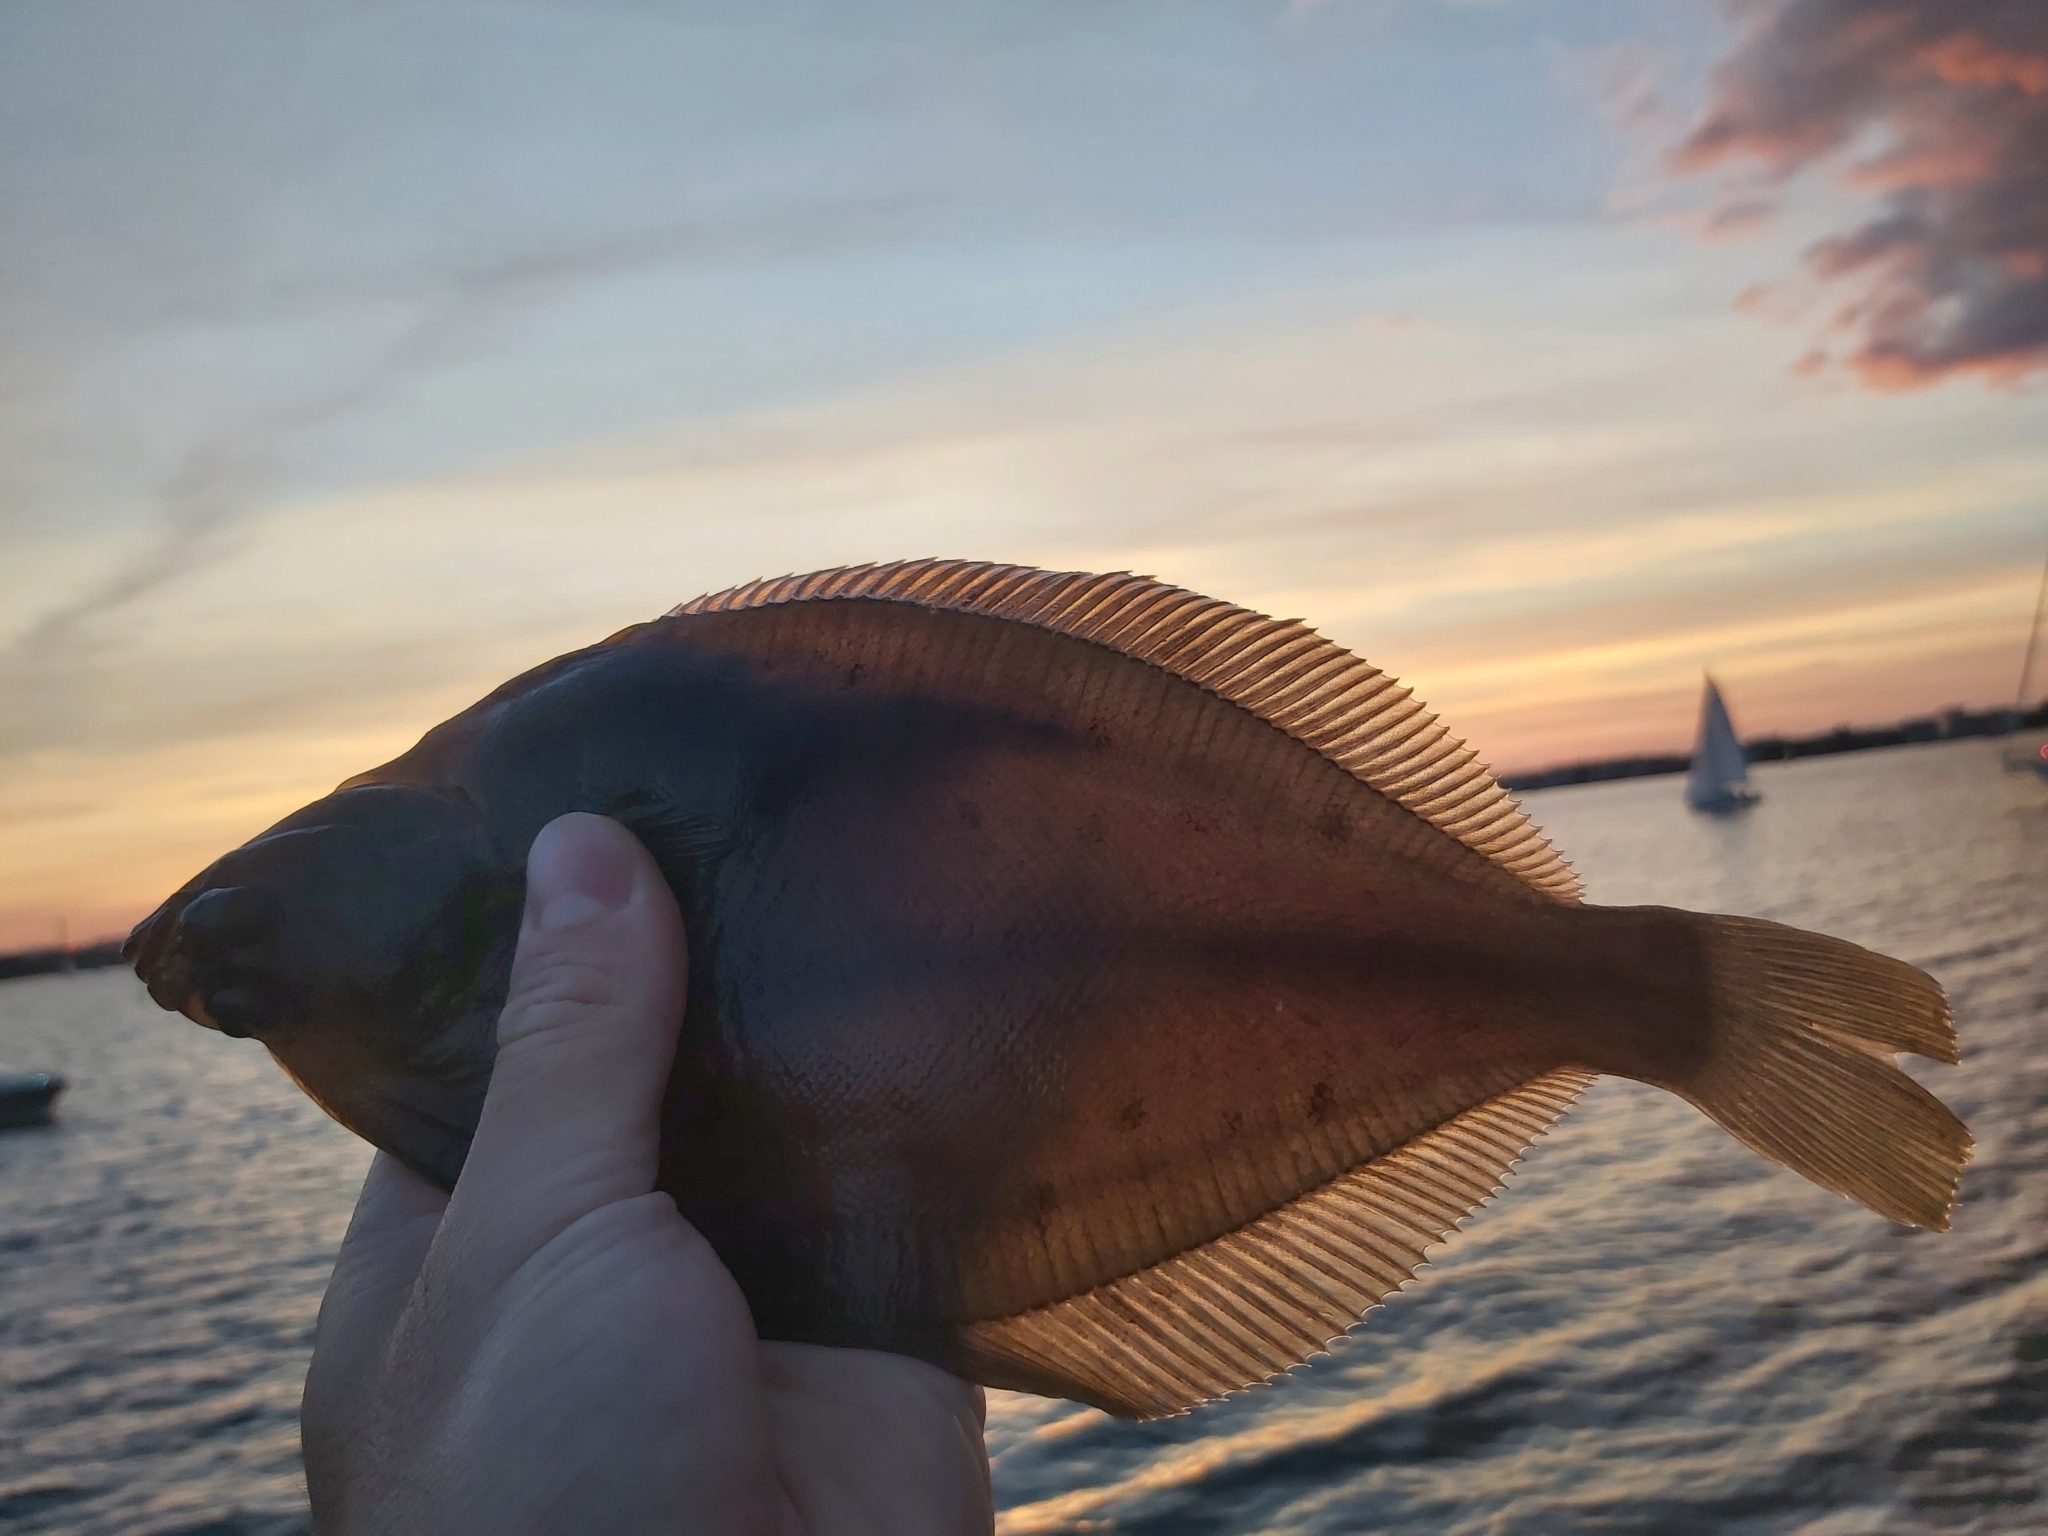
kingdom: Animalia
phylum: Chordata
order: Pleuronectiformes
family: Pleuronectidae
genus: Limanda
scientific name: Limanda limanda
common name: Dab
